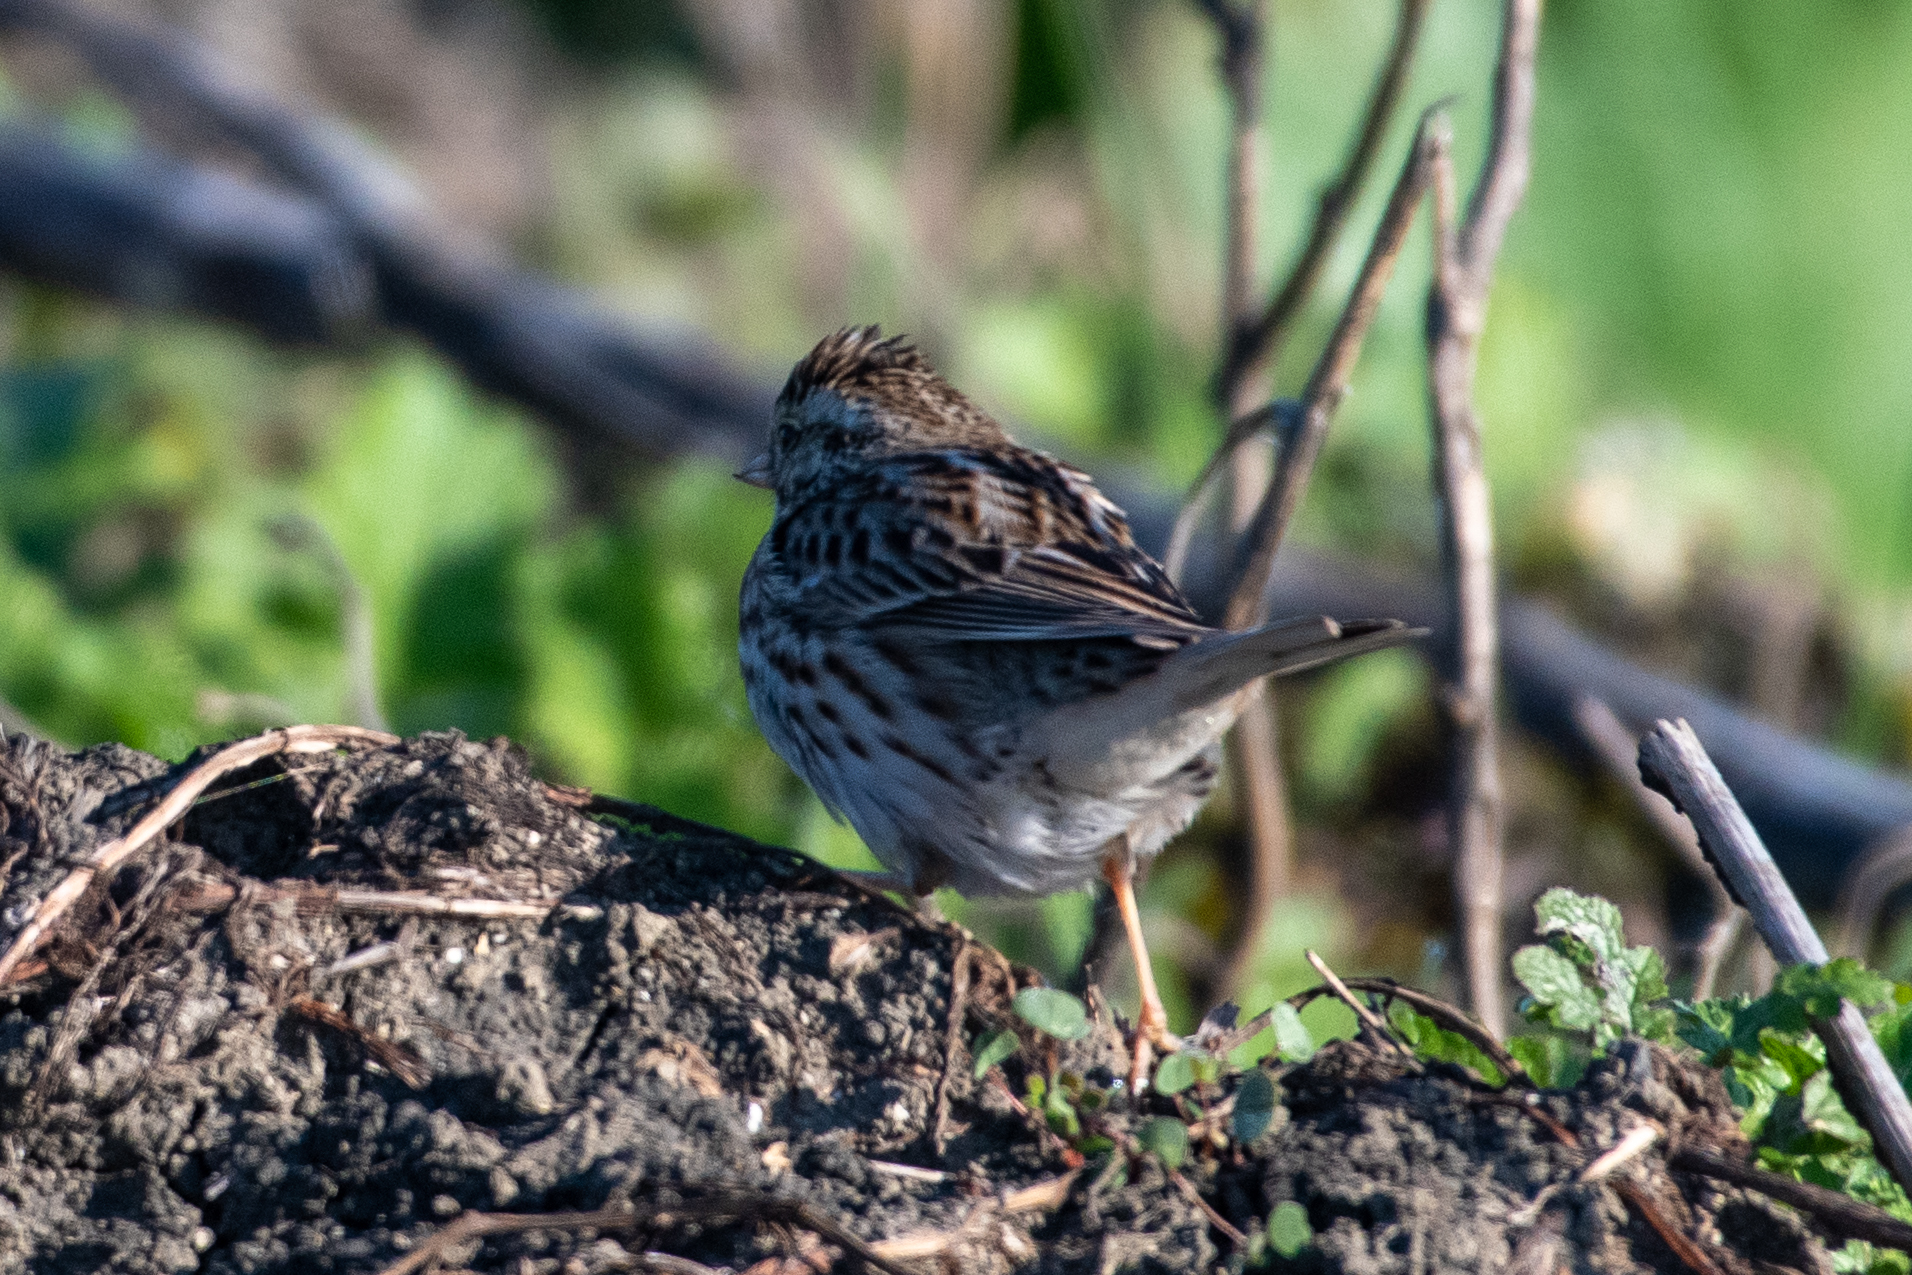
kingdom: Animalia
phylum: Chordata
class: Aves
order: Passeriformes
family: Passerellidae
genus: Passerculus
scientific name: Passerculus sandwichensis
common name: Savannah sparrow
